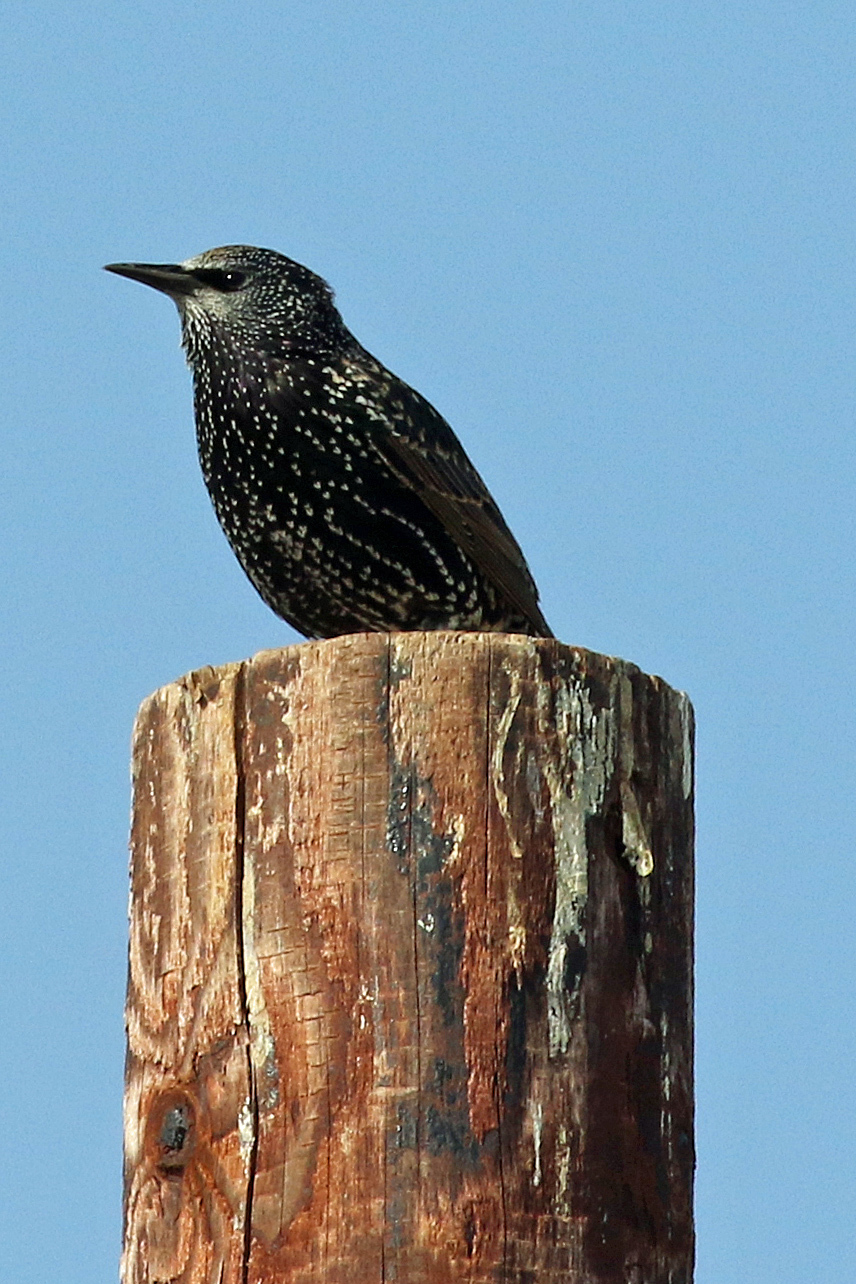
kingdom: Animalia
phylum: Chordata
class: Aves
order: Passeriformes
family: Sturnidae
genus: Sturnus
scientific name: Sturnus vulgaris
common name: Common starling
